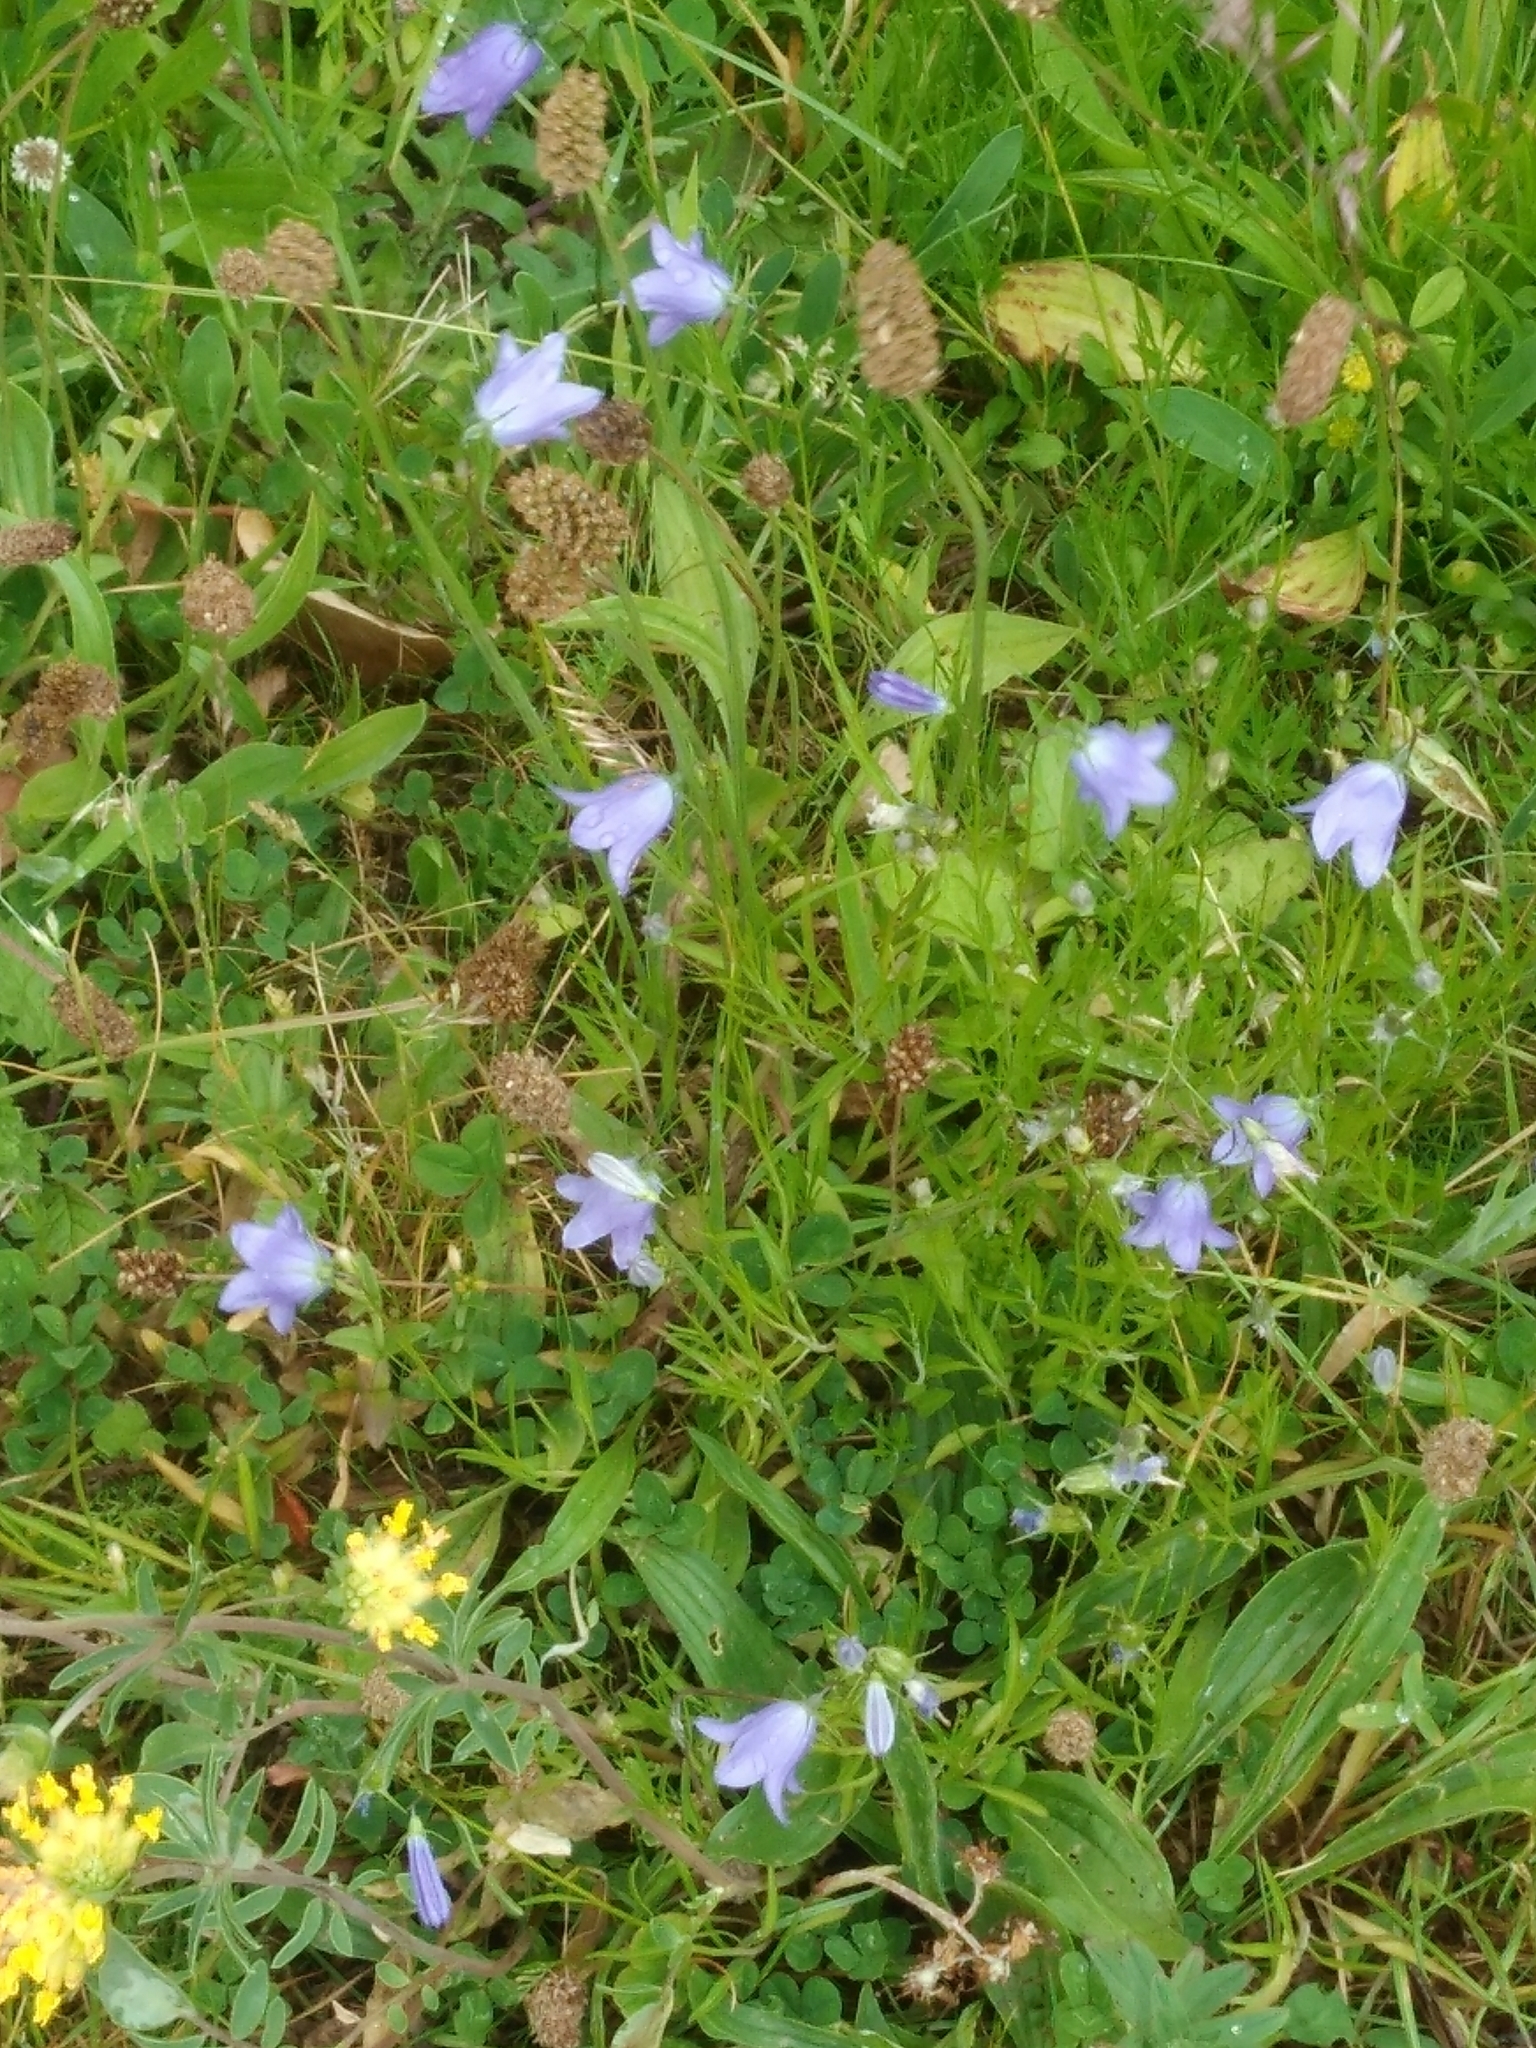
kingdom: Plantae
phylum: Tracheophyta
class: Magnoliopsida
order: Asterales
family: Campanulaceae
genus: Campanula
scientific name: Campanula rotundifolia
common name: Harebell
